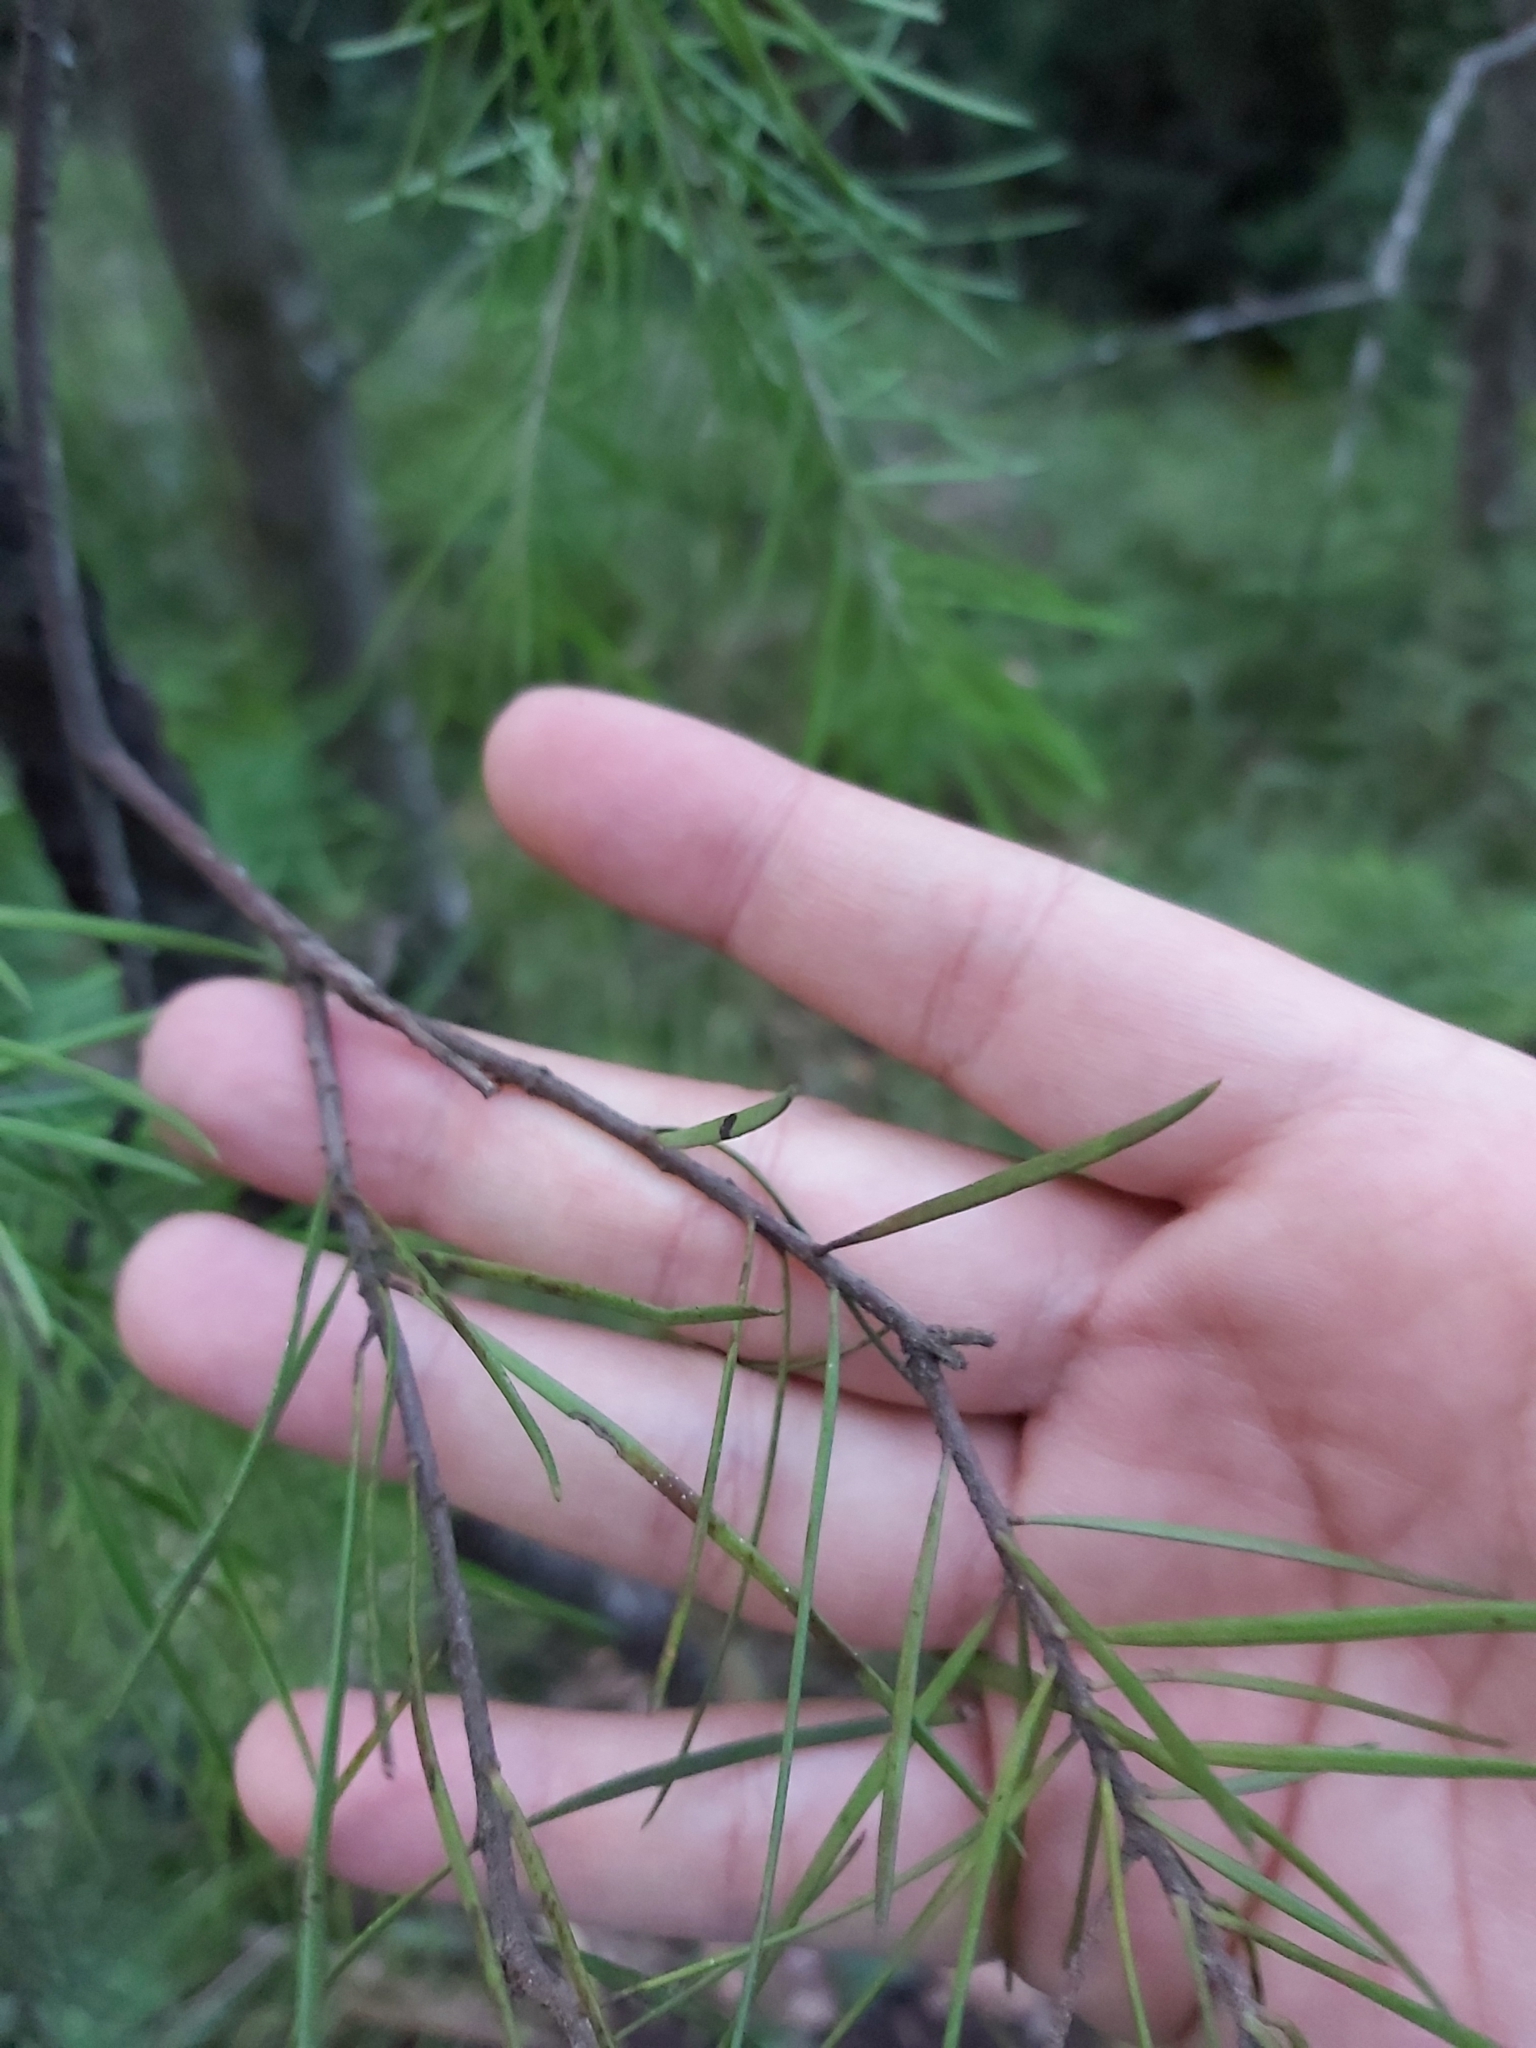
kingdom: Plantae
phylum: Tracheophyta
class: Magnoliopsida
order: Proteales
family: Proteaceae
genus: Persoonia
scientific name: Persoonia linearis
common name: Narrow-leaf geebung
